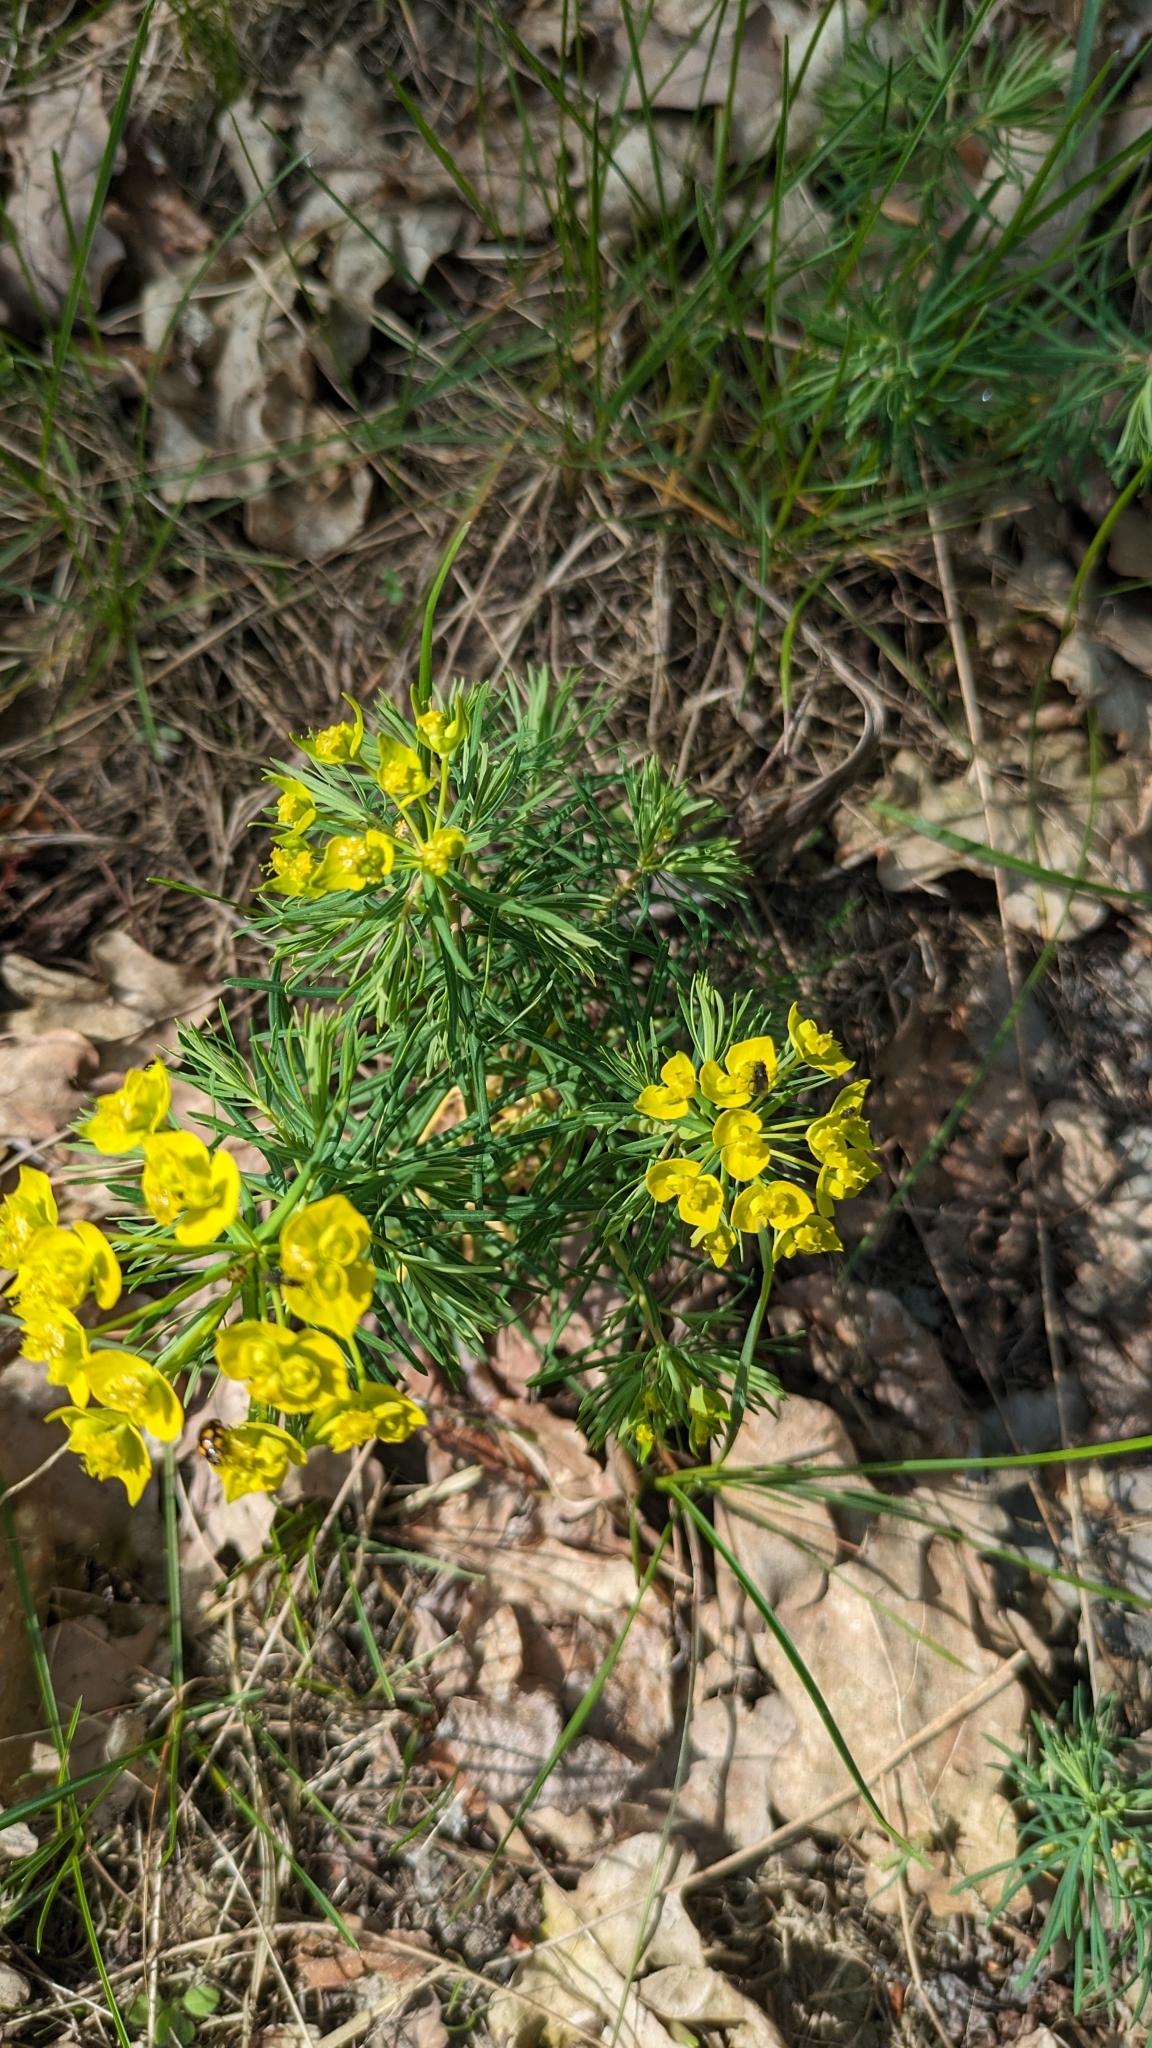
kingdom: Animalia
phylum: Arthropoda
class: Insecta
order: Coleoptera
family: Coccinellidae
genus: Coccinula
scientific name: Coccinula quatuordecimpustulata
